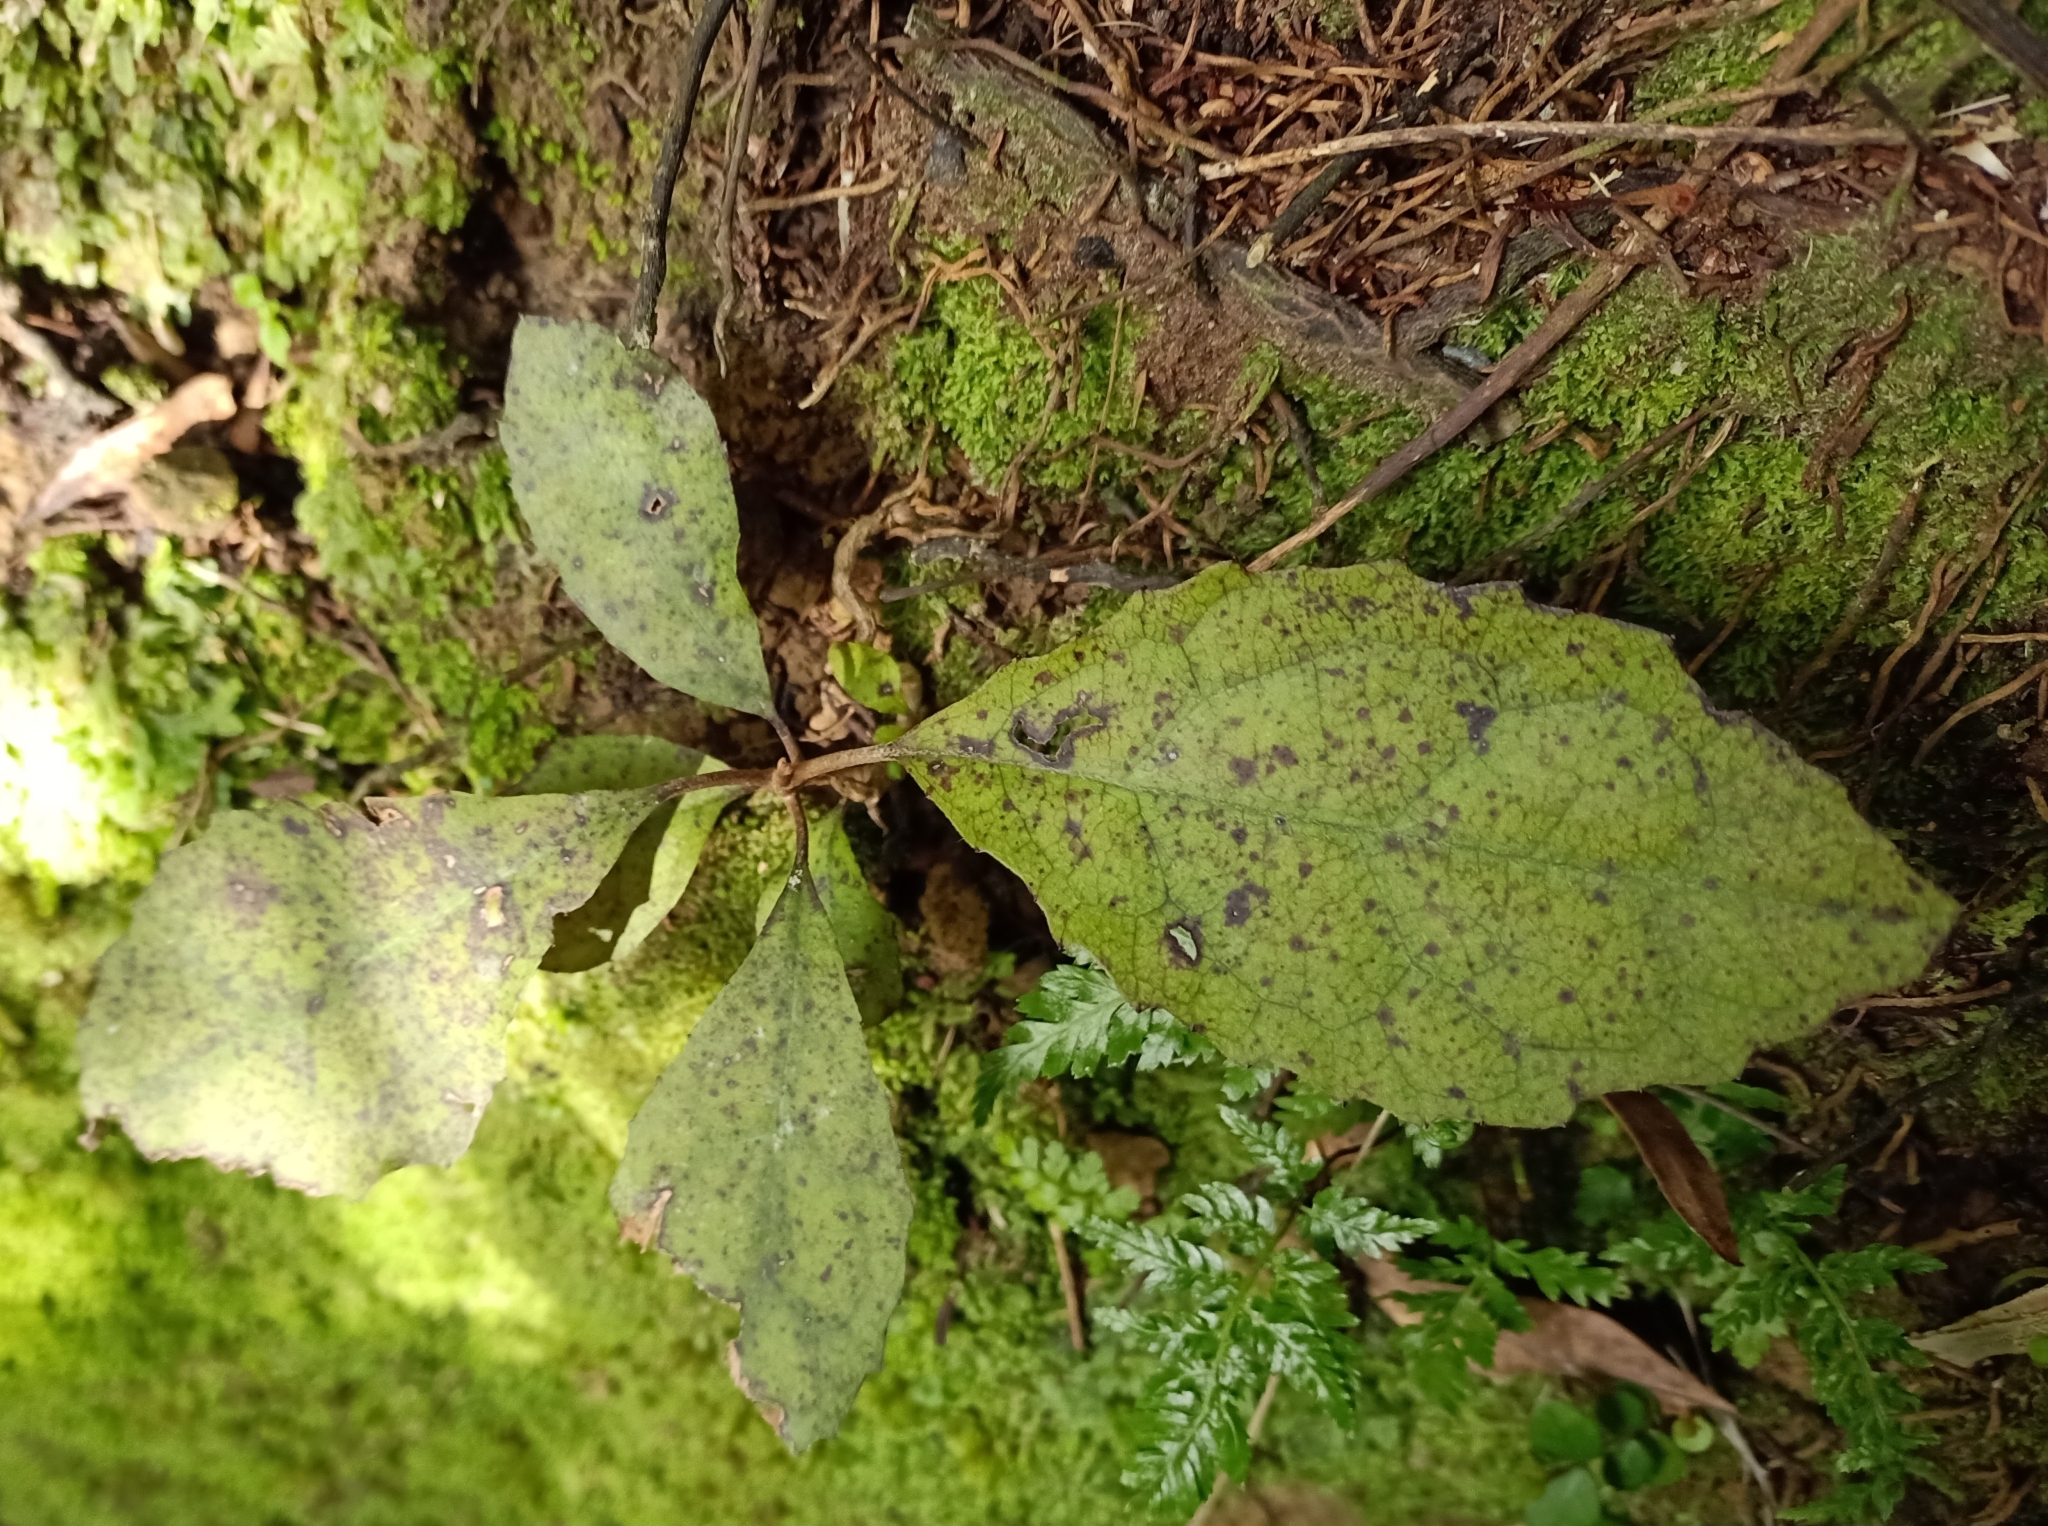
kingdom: Plantae
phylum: Tracheophyta
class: Magnoliopsida
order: Asterales
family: Asteraceae
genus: Olearia
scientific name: Olearia rani
